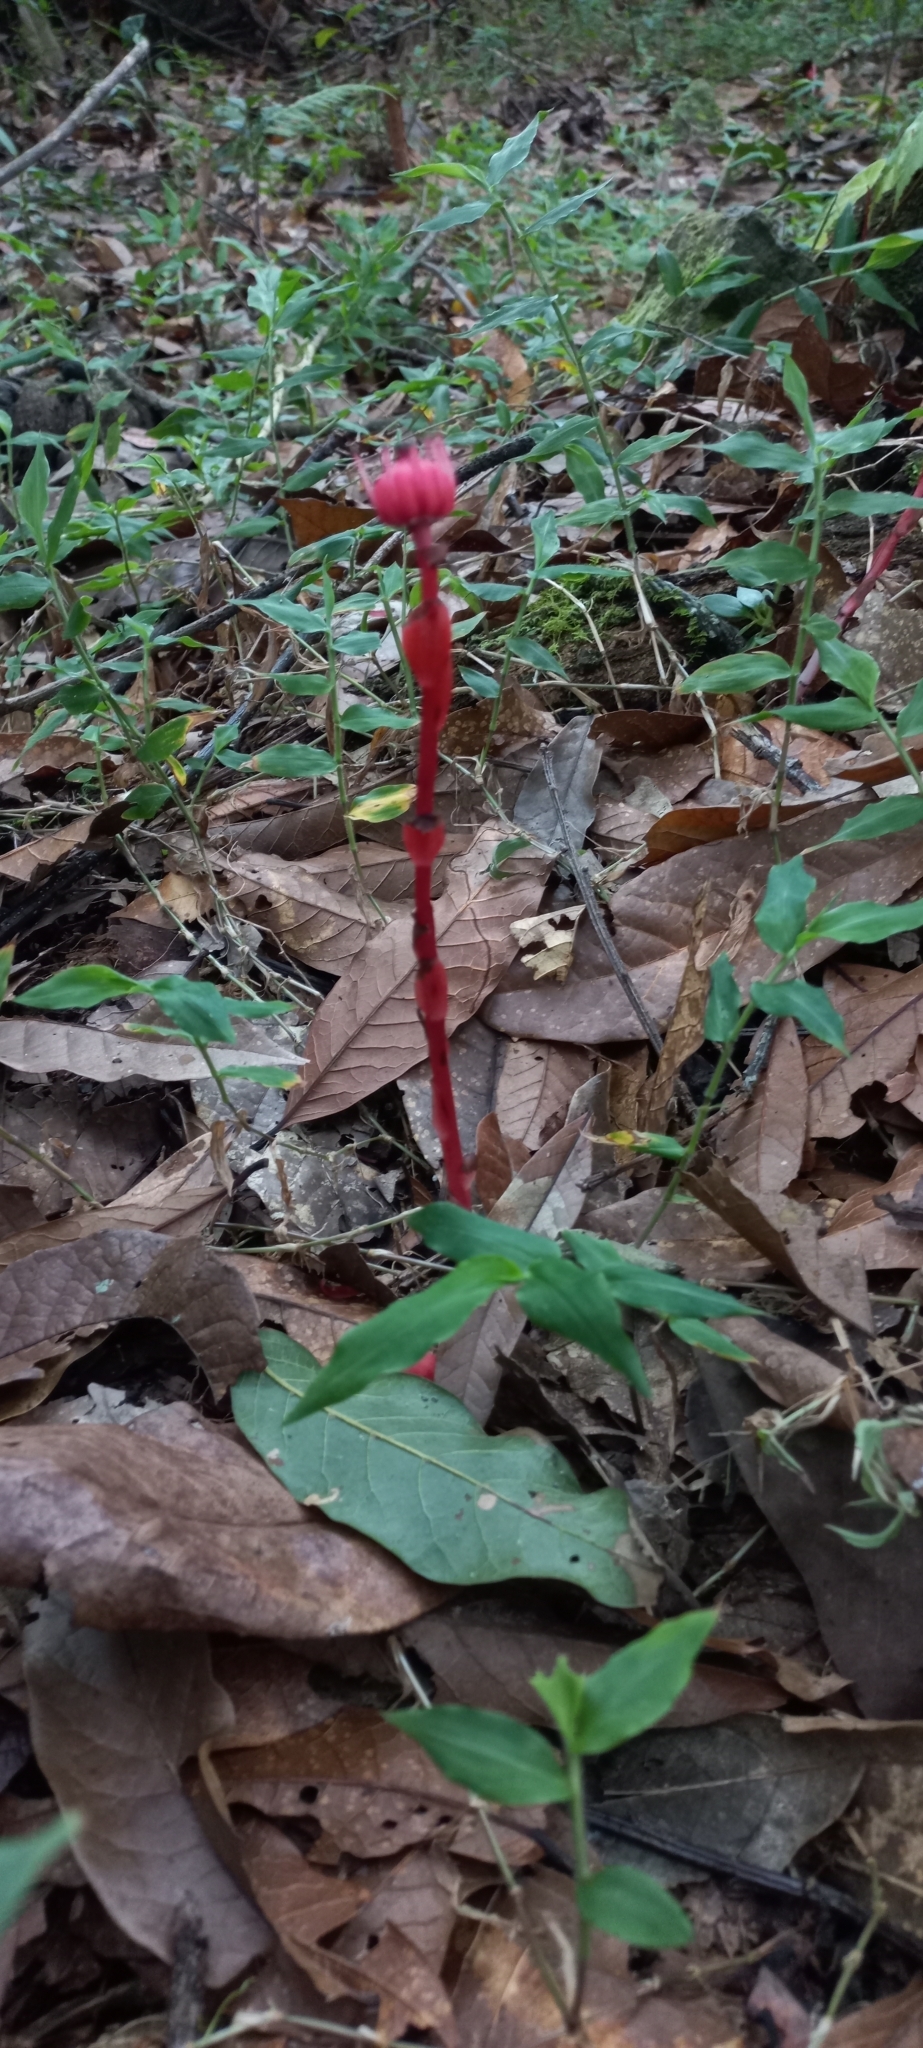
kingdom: Plantae
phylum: Tracheophyta
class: Magnoliopsida
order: Ericales
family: Ericaceae
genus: Monotropa
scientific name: Monotropa coccinea
